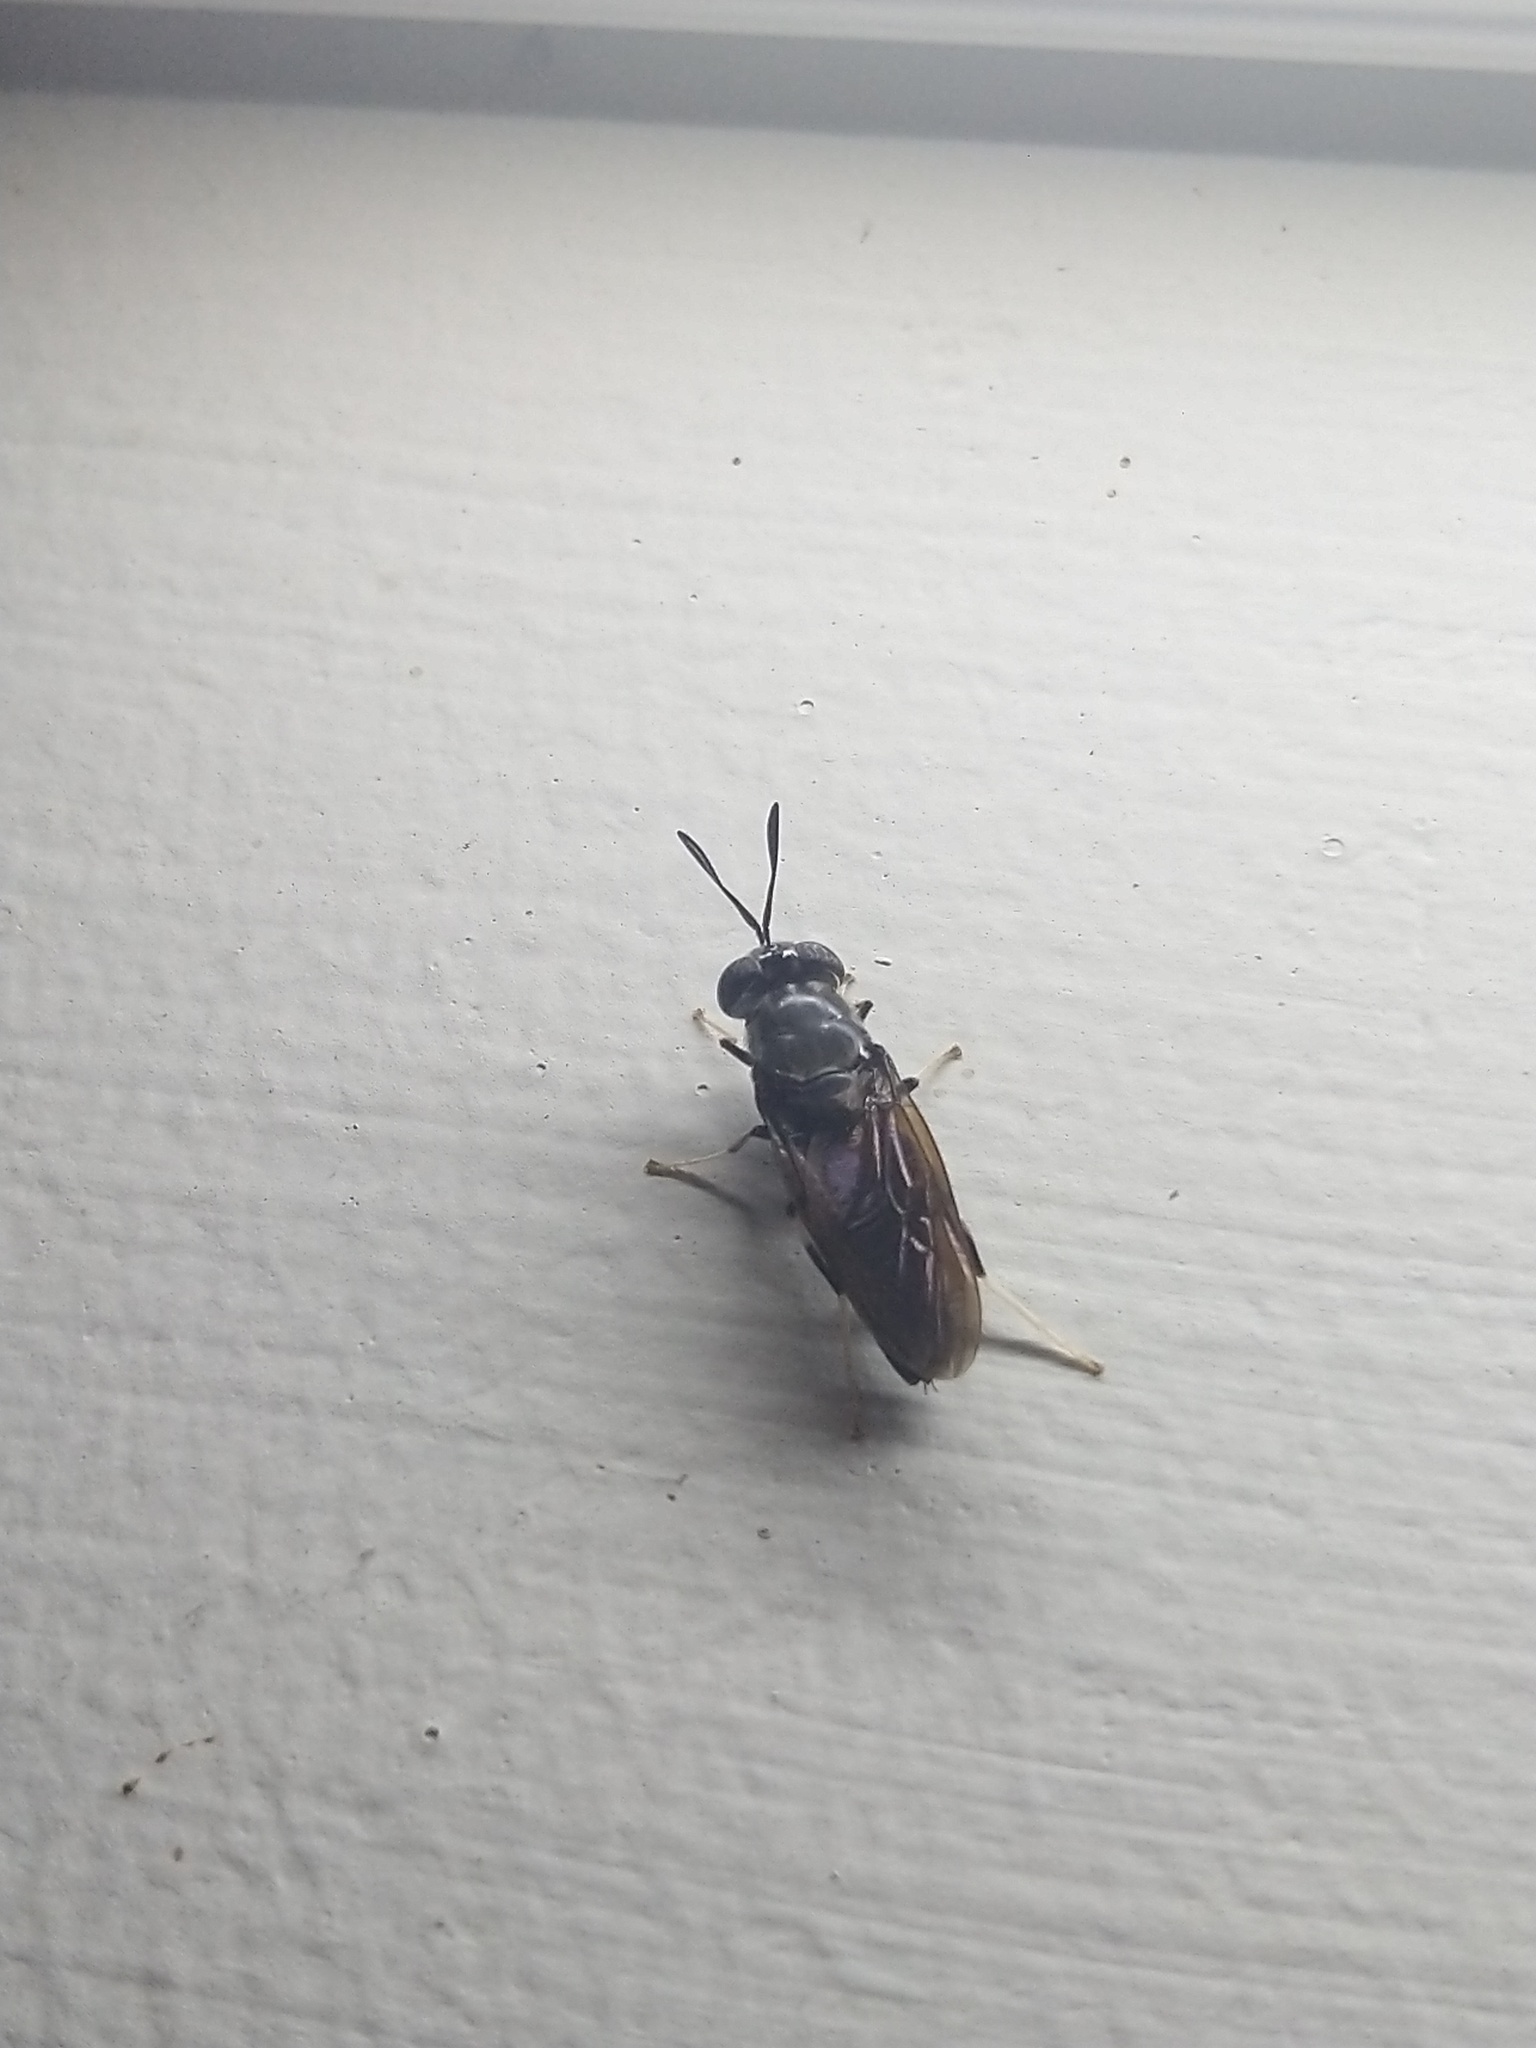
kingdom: Animalia
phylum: Arthropoda
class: Insecta
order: Diptera
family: Stratiomyidae
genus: Hermetia
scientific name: Hermetia illucens
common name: Black soldier fly
